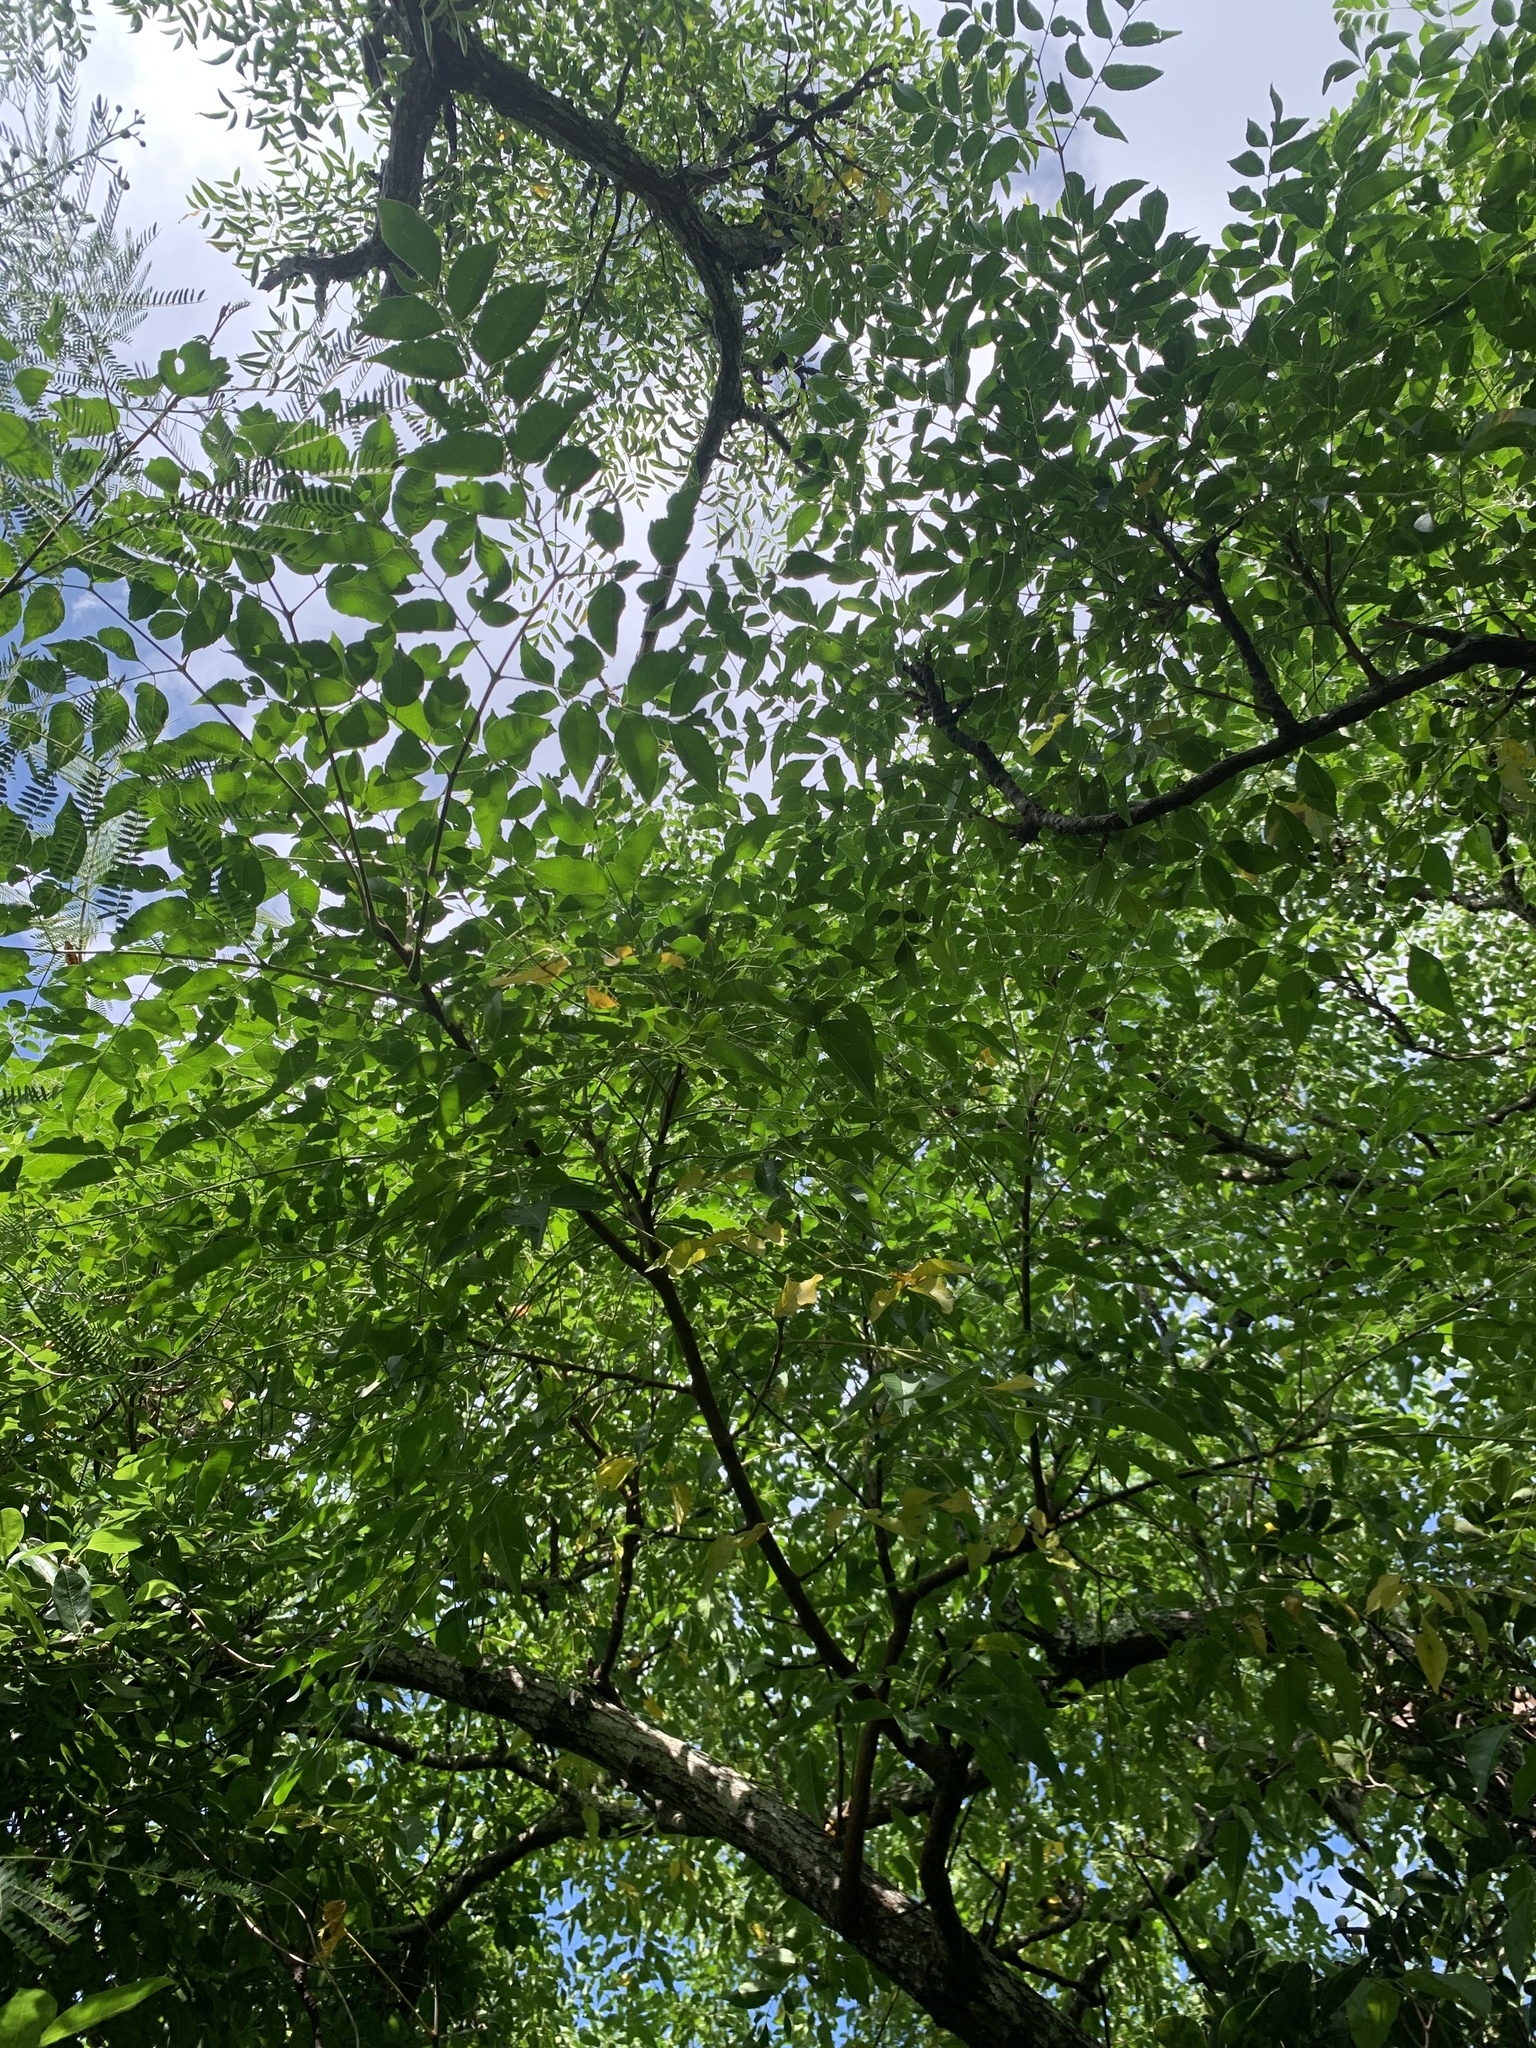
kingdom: Plantae
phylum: Tracheophyta
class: Magnoliopsida
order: Sapindales
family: Meliaceae
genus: Melia
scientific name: Melia azedarach
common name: Chinaberrytree
